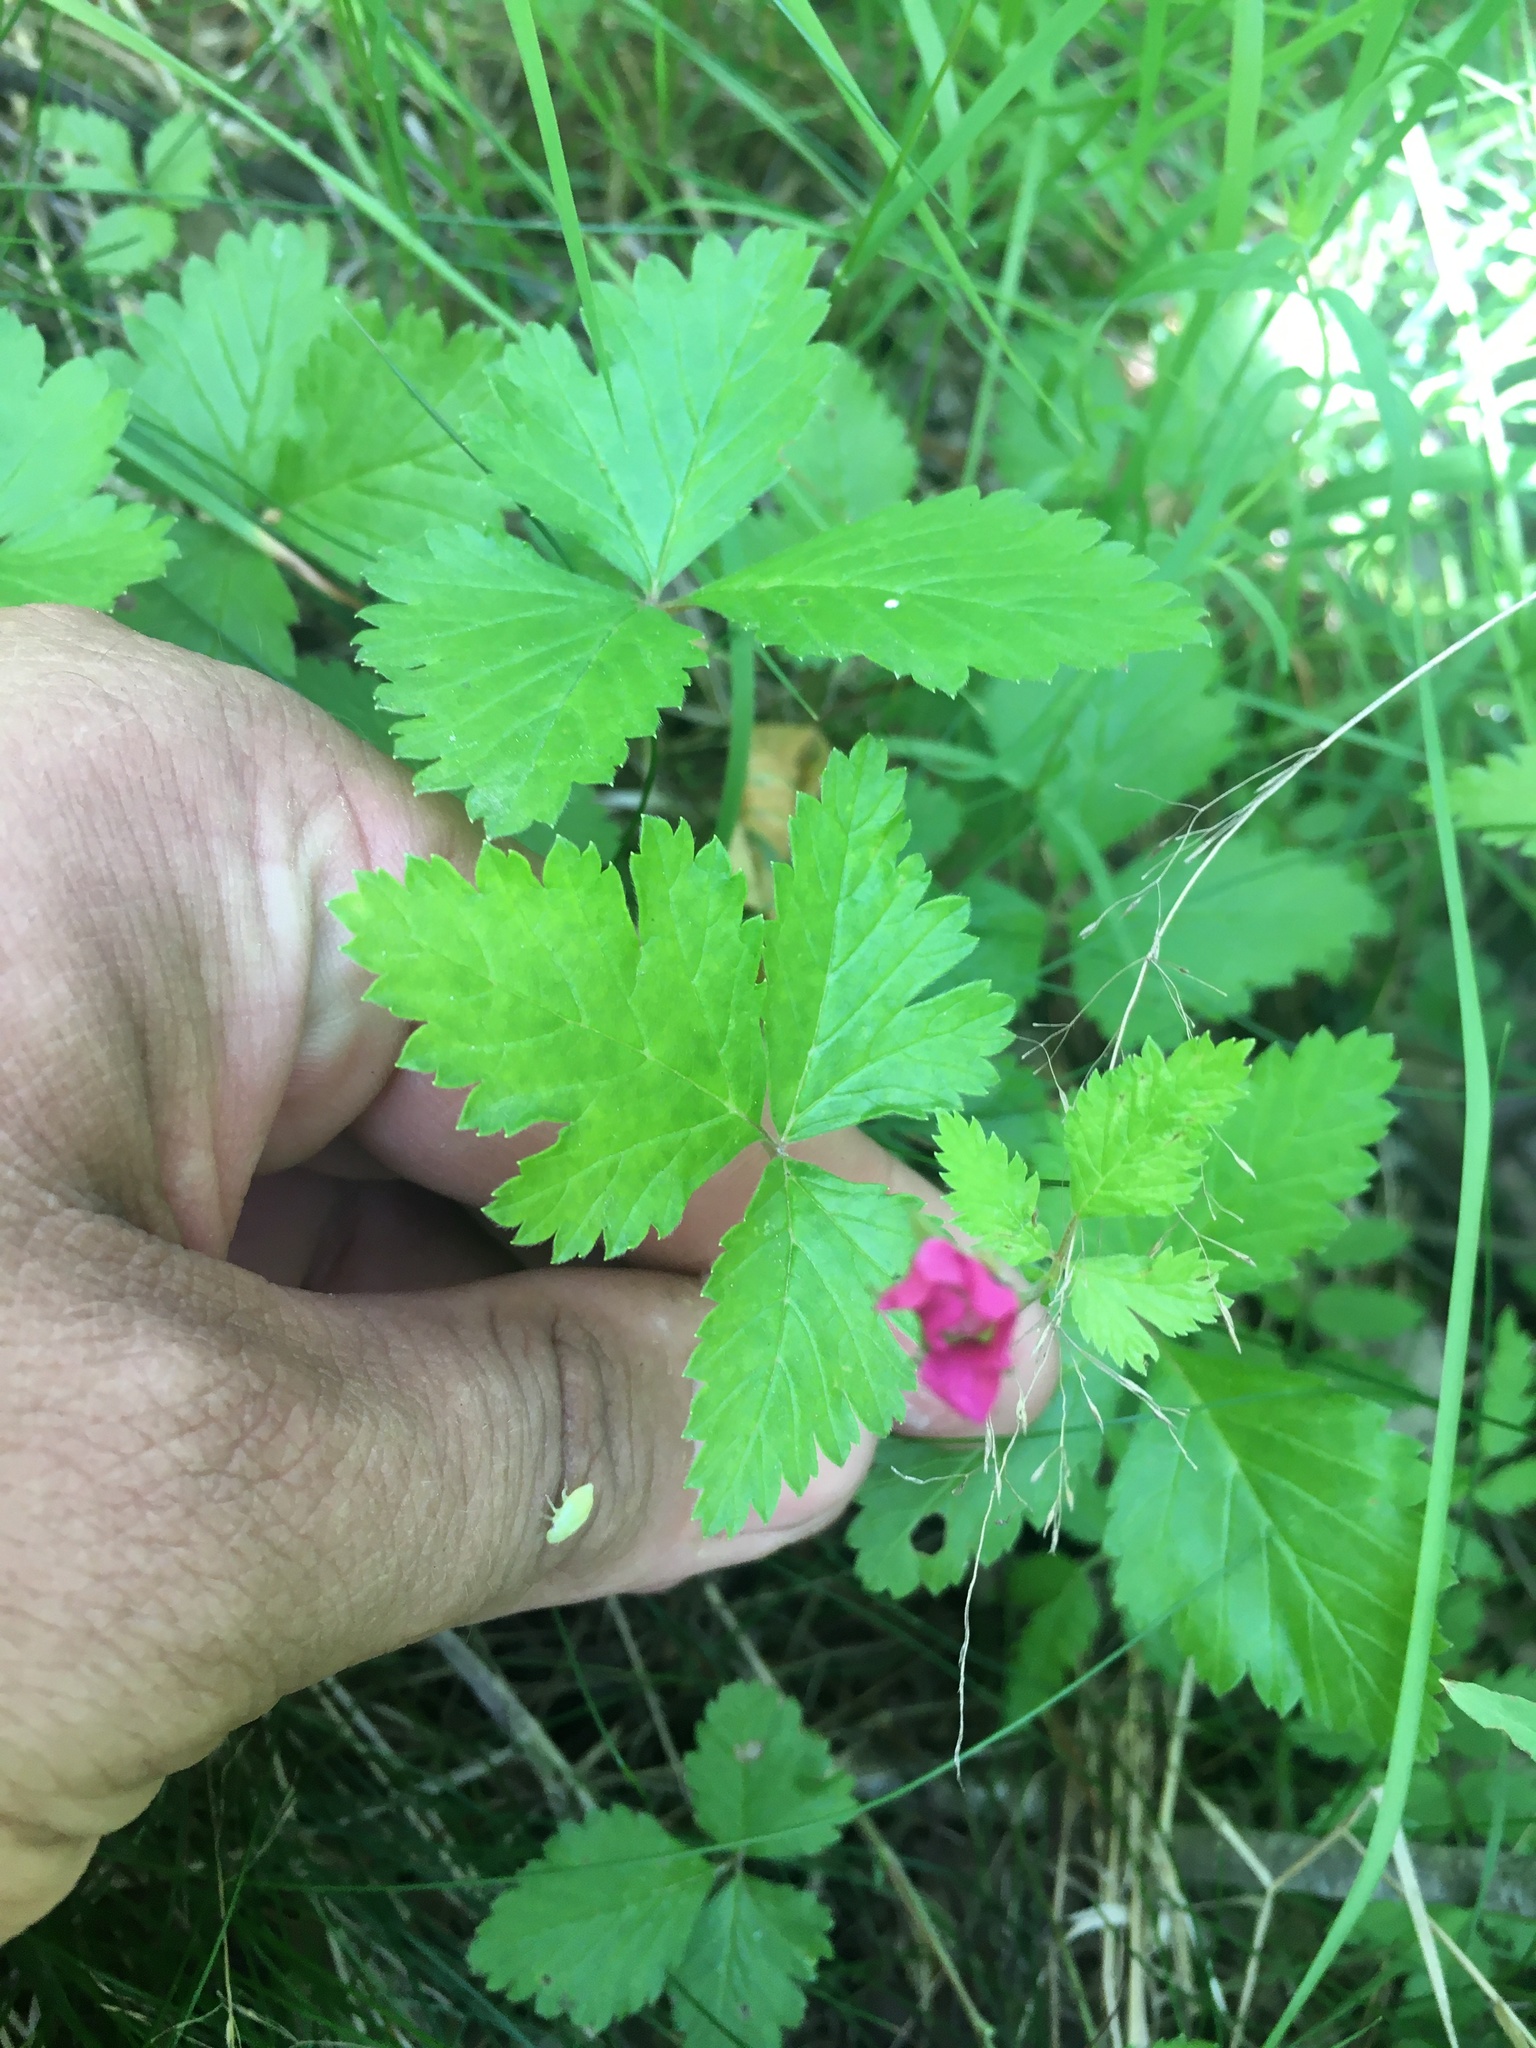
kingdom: Plantae
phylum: Tracheophyta
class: Magnoliopsida
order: Rosales
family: Rosaceae
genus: Rubus
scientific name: Rubus arcticus
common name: Arctic bramble
